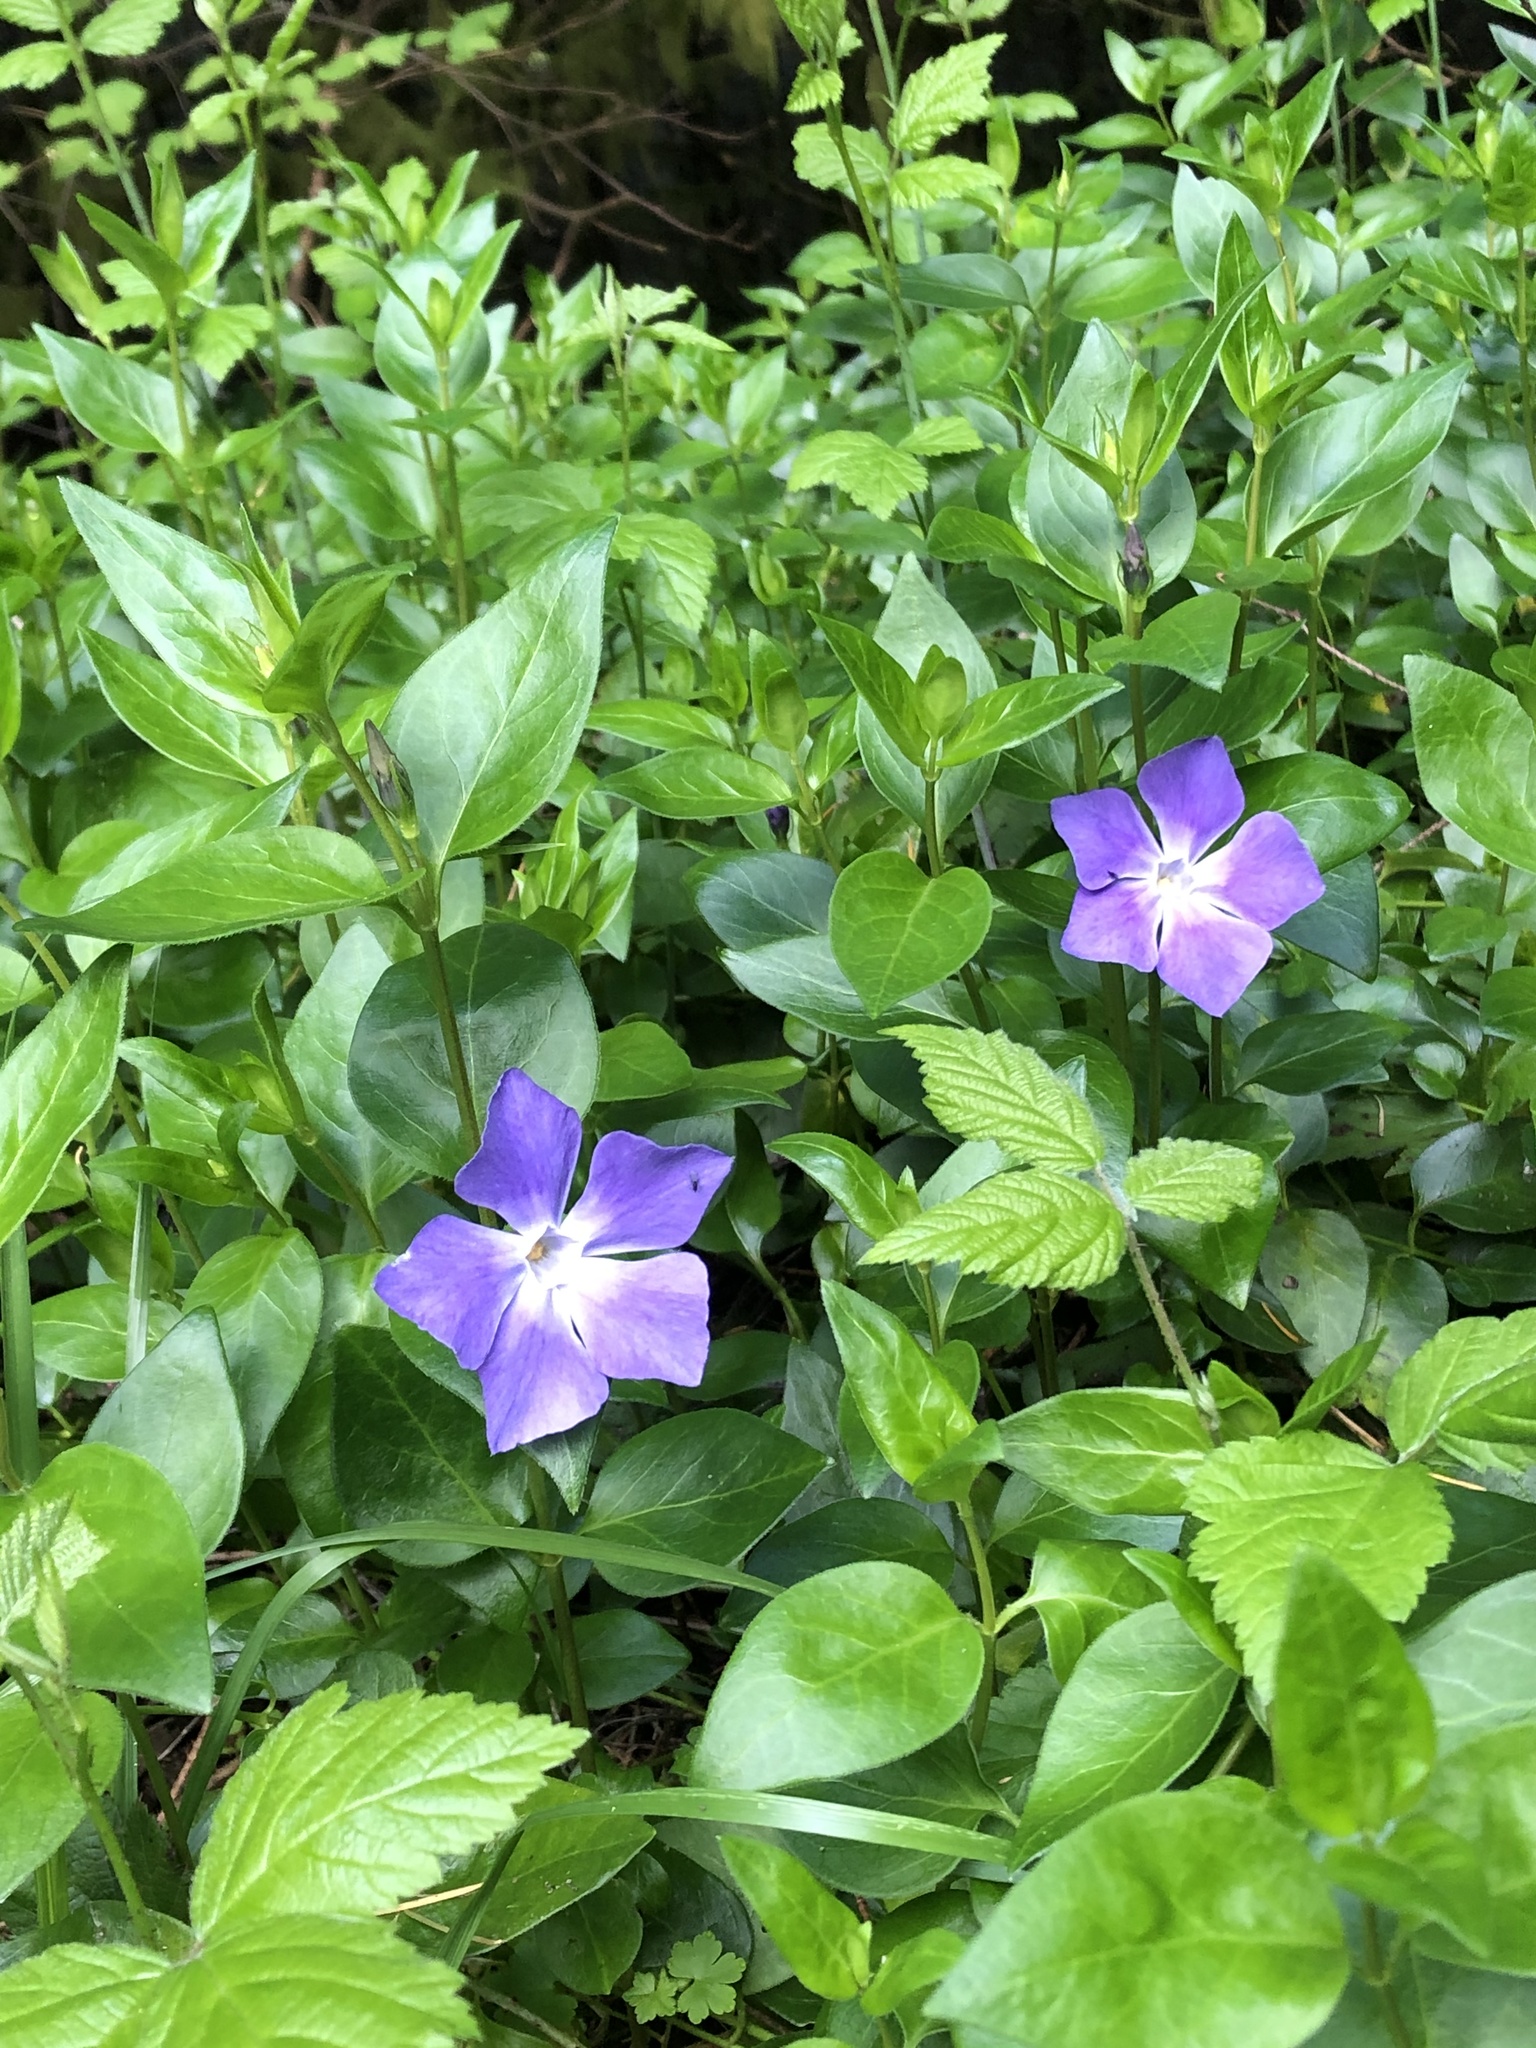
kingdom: Plantae
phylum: Tracheophyta
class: Magnoliopsida
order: Gentianales
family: Apocynaceae
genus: Vinca
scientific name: Vinca major
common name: Greater periwinkle
